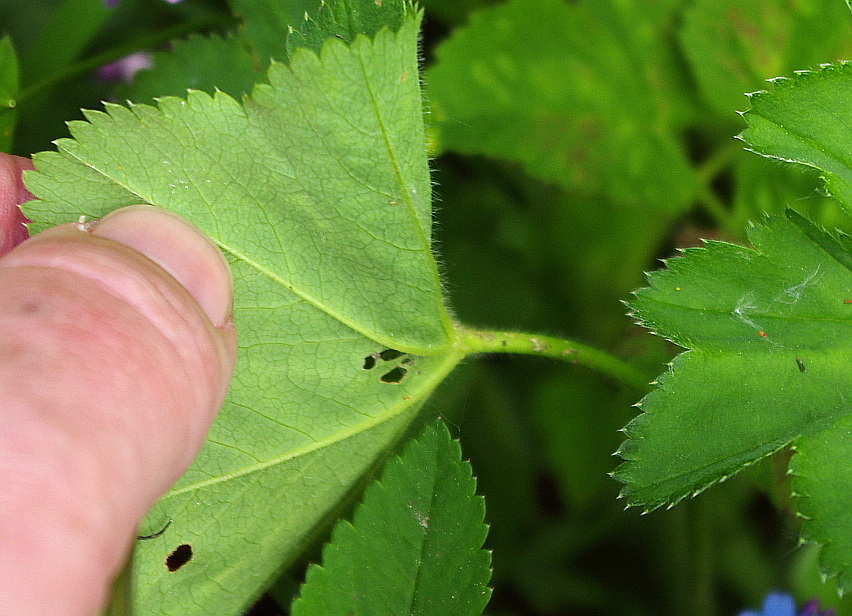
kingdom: Plantae
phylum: Tracheophyta
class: Magnoliopsida
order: Rosales
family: Rosaceae
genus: Alchemilla
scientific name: Alchemilla cymatophylla
